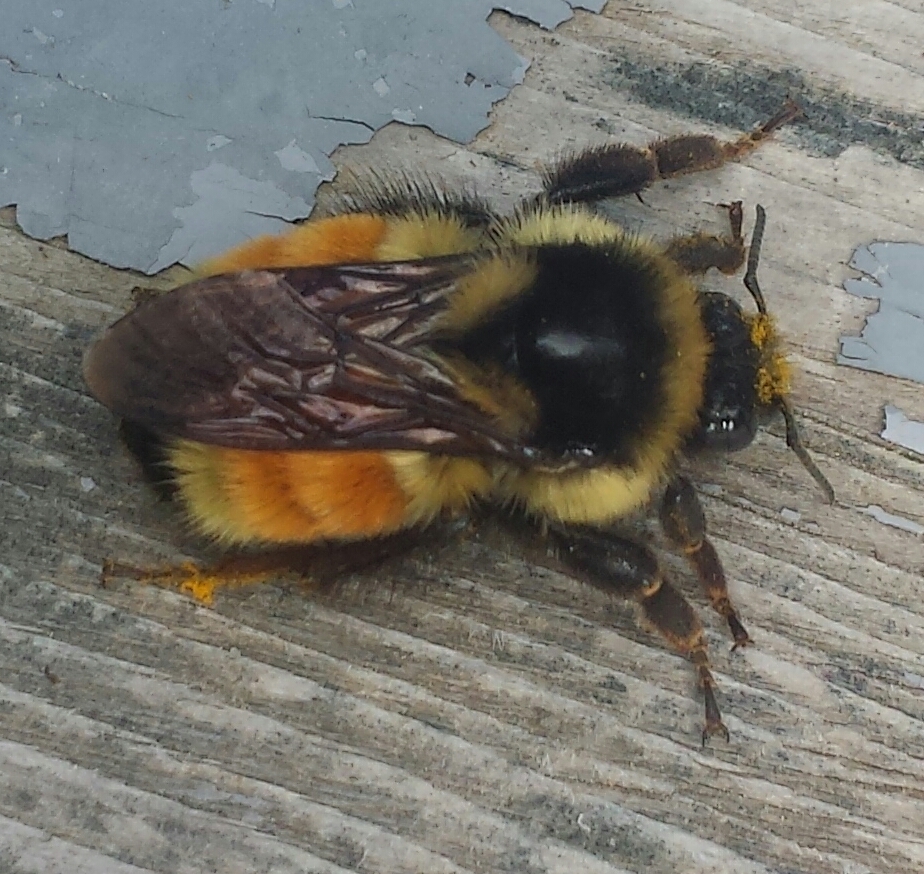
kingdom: Animalia
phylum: Arthropoda
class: Insecta
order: Hymenoptera
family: Apidae
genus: Bombus
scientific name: Bombus ternarius
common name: Tri-colored bumble bee
